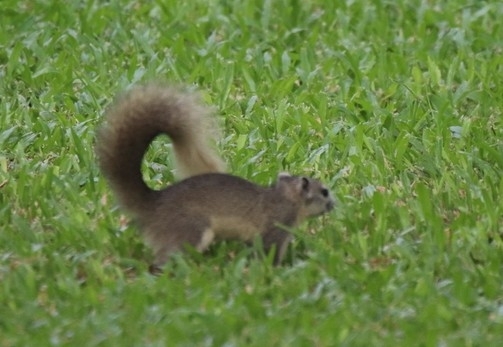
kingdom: Animalia
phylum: Chordata
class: Mammalia
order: Rodentia
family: Sciuridae
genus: Callosciurus
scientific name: Callosciurus finlaysonii
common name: Finlayson's squirrel
